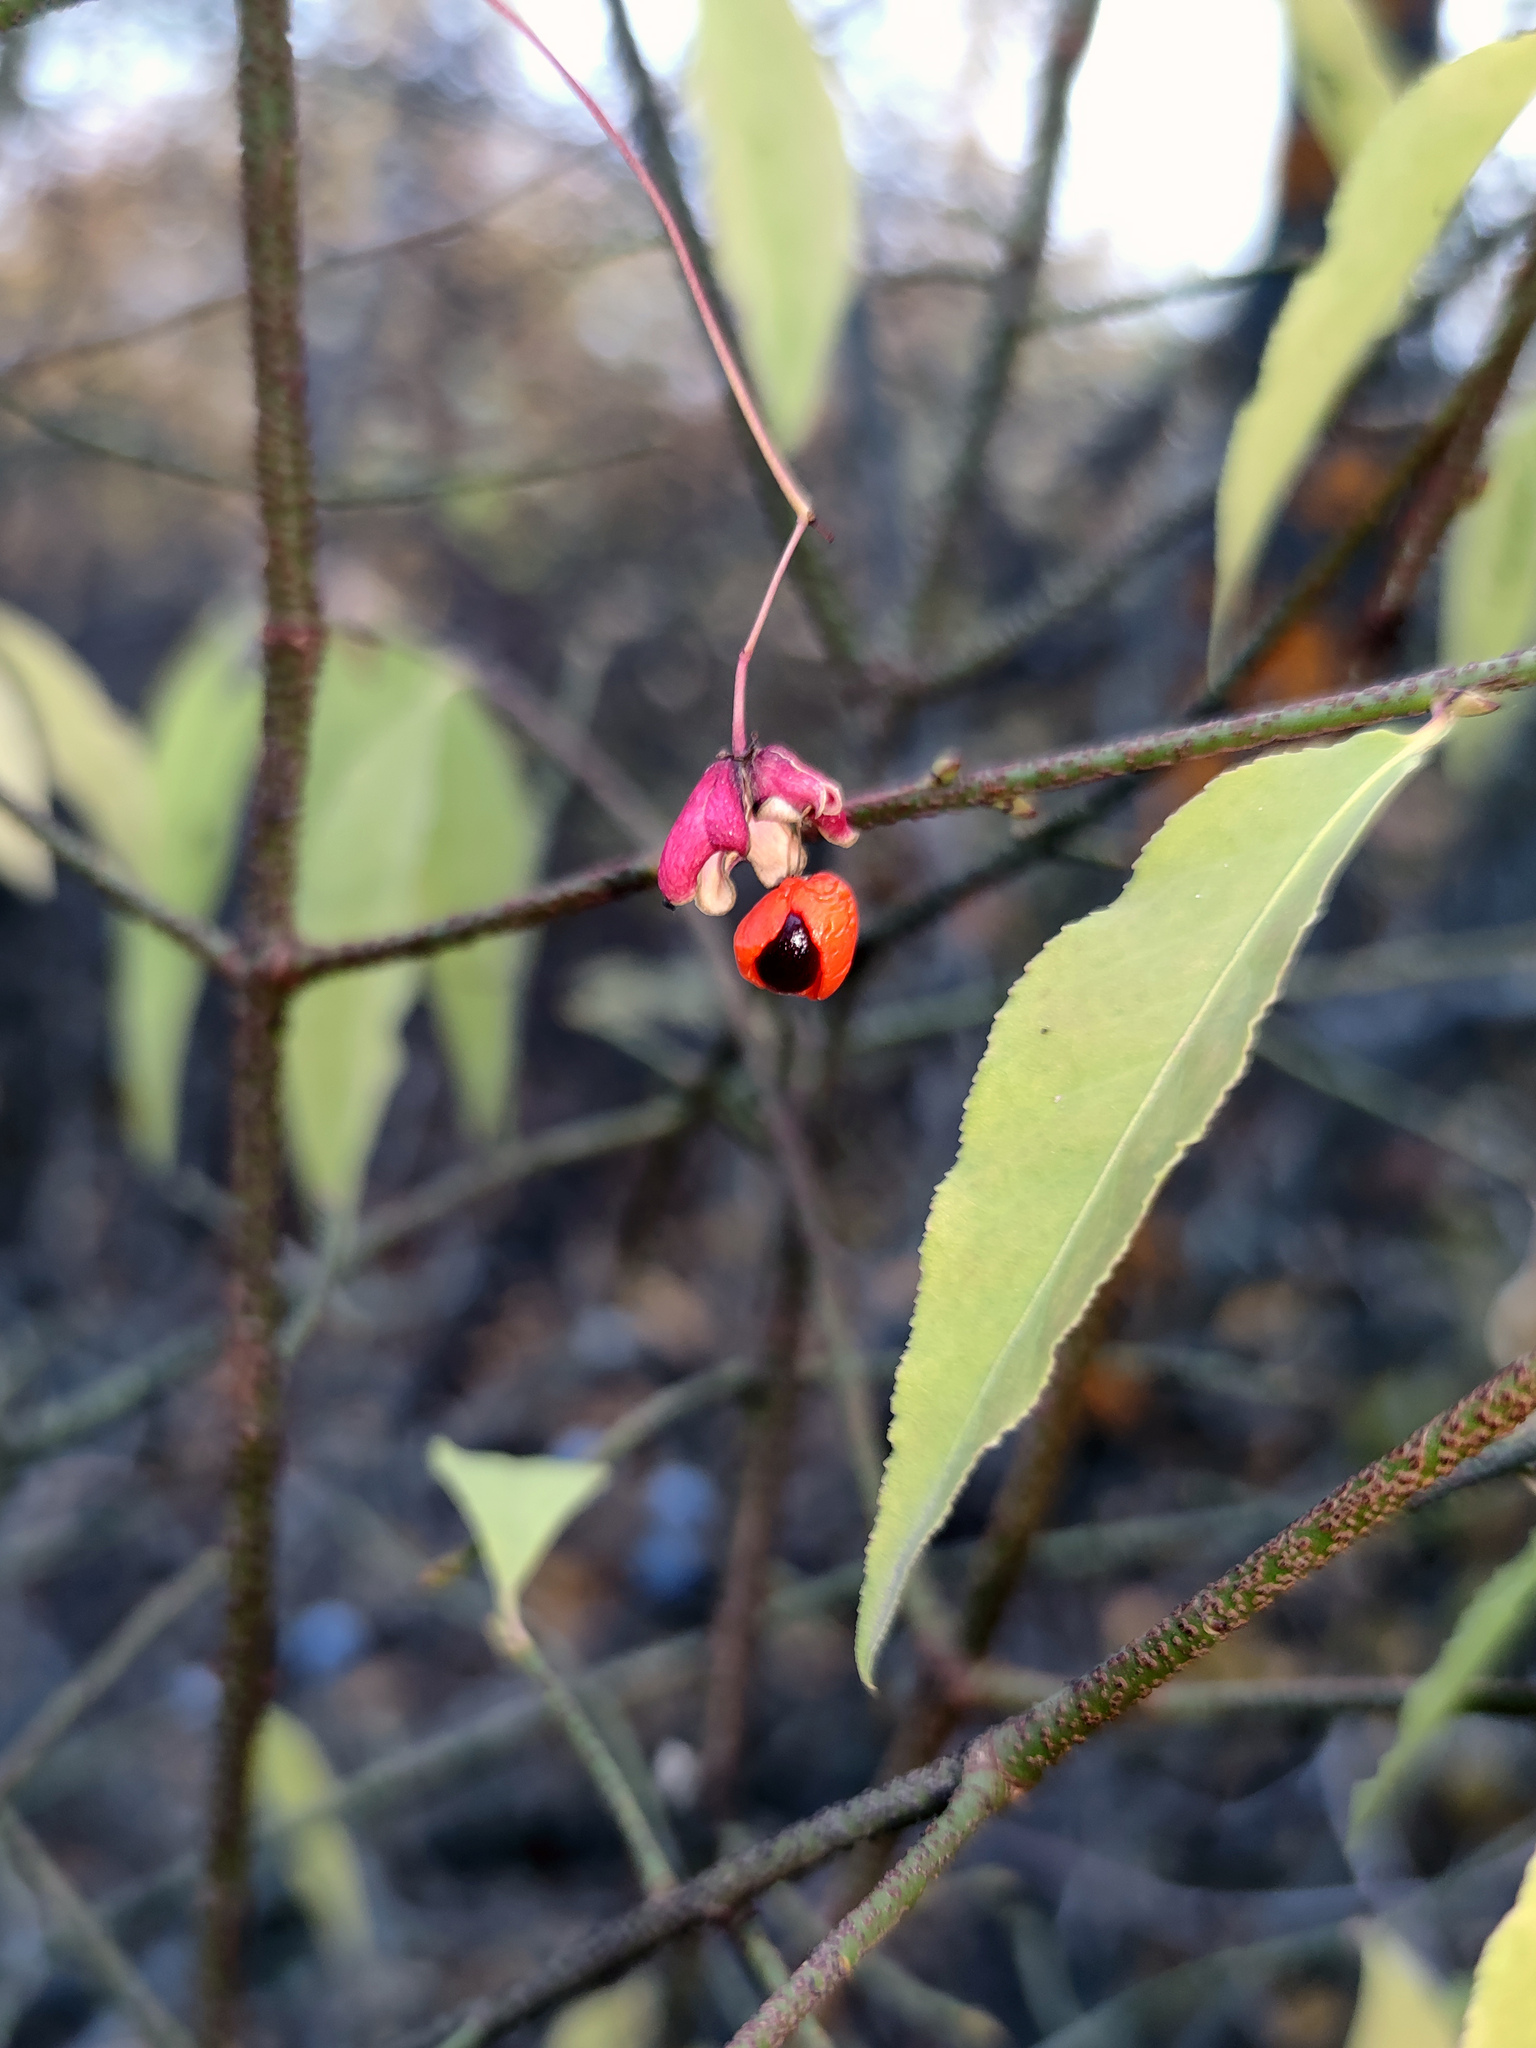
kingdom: Plantae
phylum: Tracheophyta
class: Magnoliopsida
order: Celastrales
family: Celastraceae
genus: Euonymus
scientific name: Euonymus verrucosus
